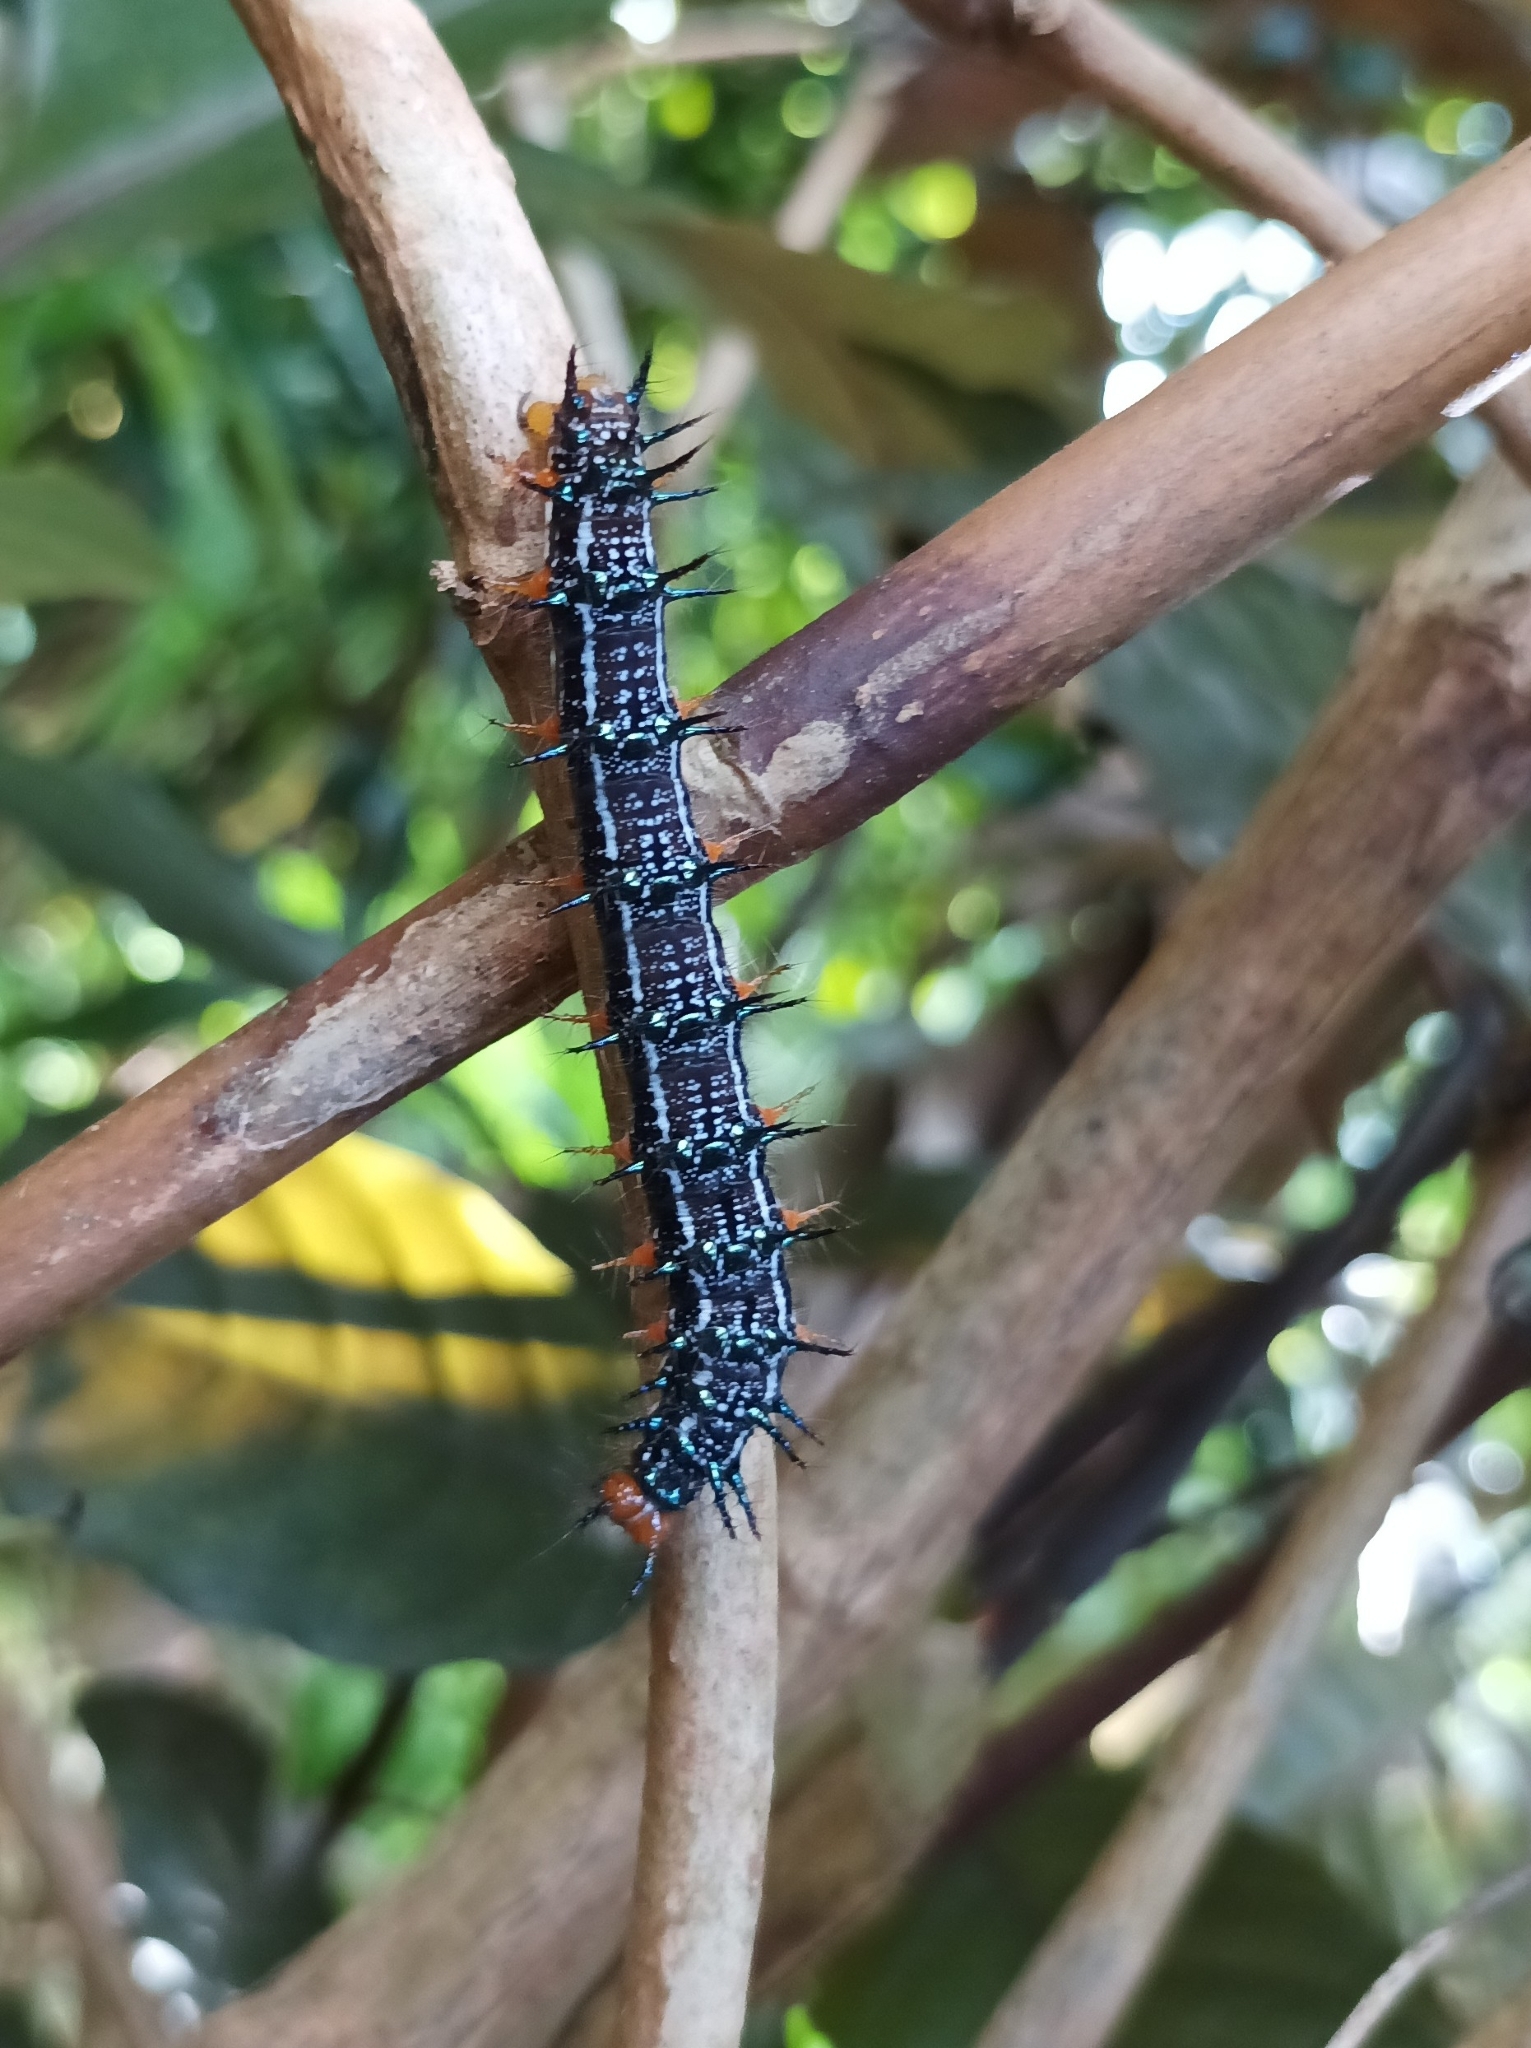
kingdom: Animalia
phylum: Arthropoda
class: Insecta
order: Lepidoptera
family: Nymphalidae
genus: Doleschallia
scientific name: Doleschallia browni
